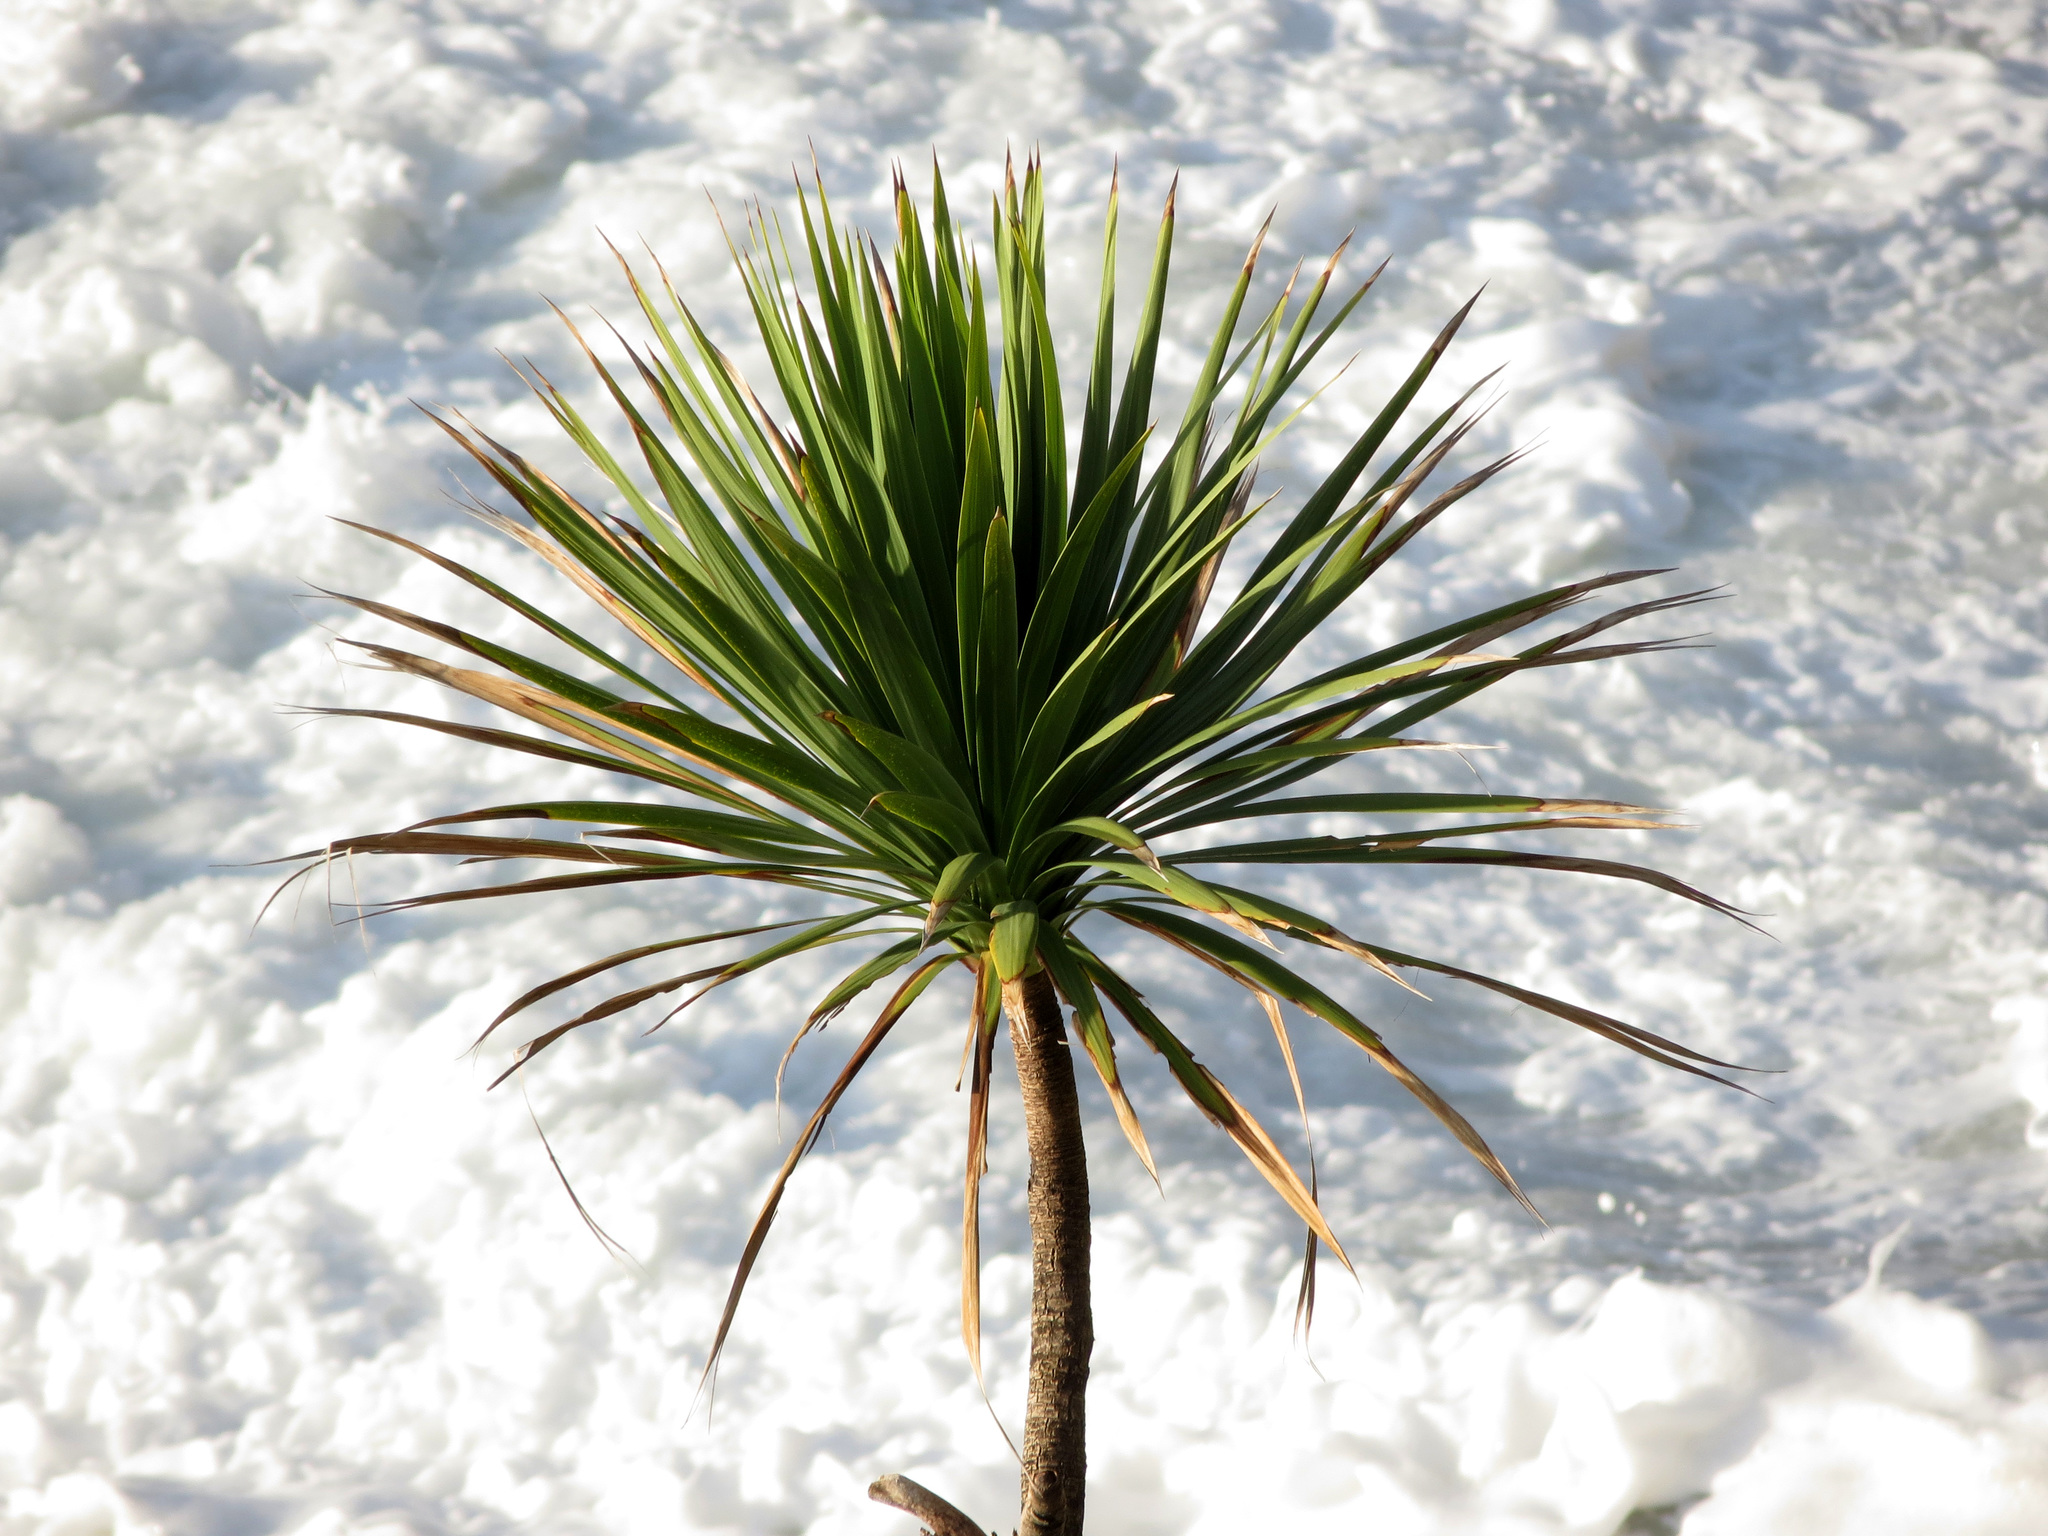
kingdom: Plantae
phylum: Tracheophyta
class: Liliopsida
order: Asparagales
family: Asparagaceae
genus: Cordyline
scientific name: Cordyline australis
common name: Cabbage-palm
